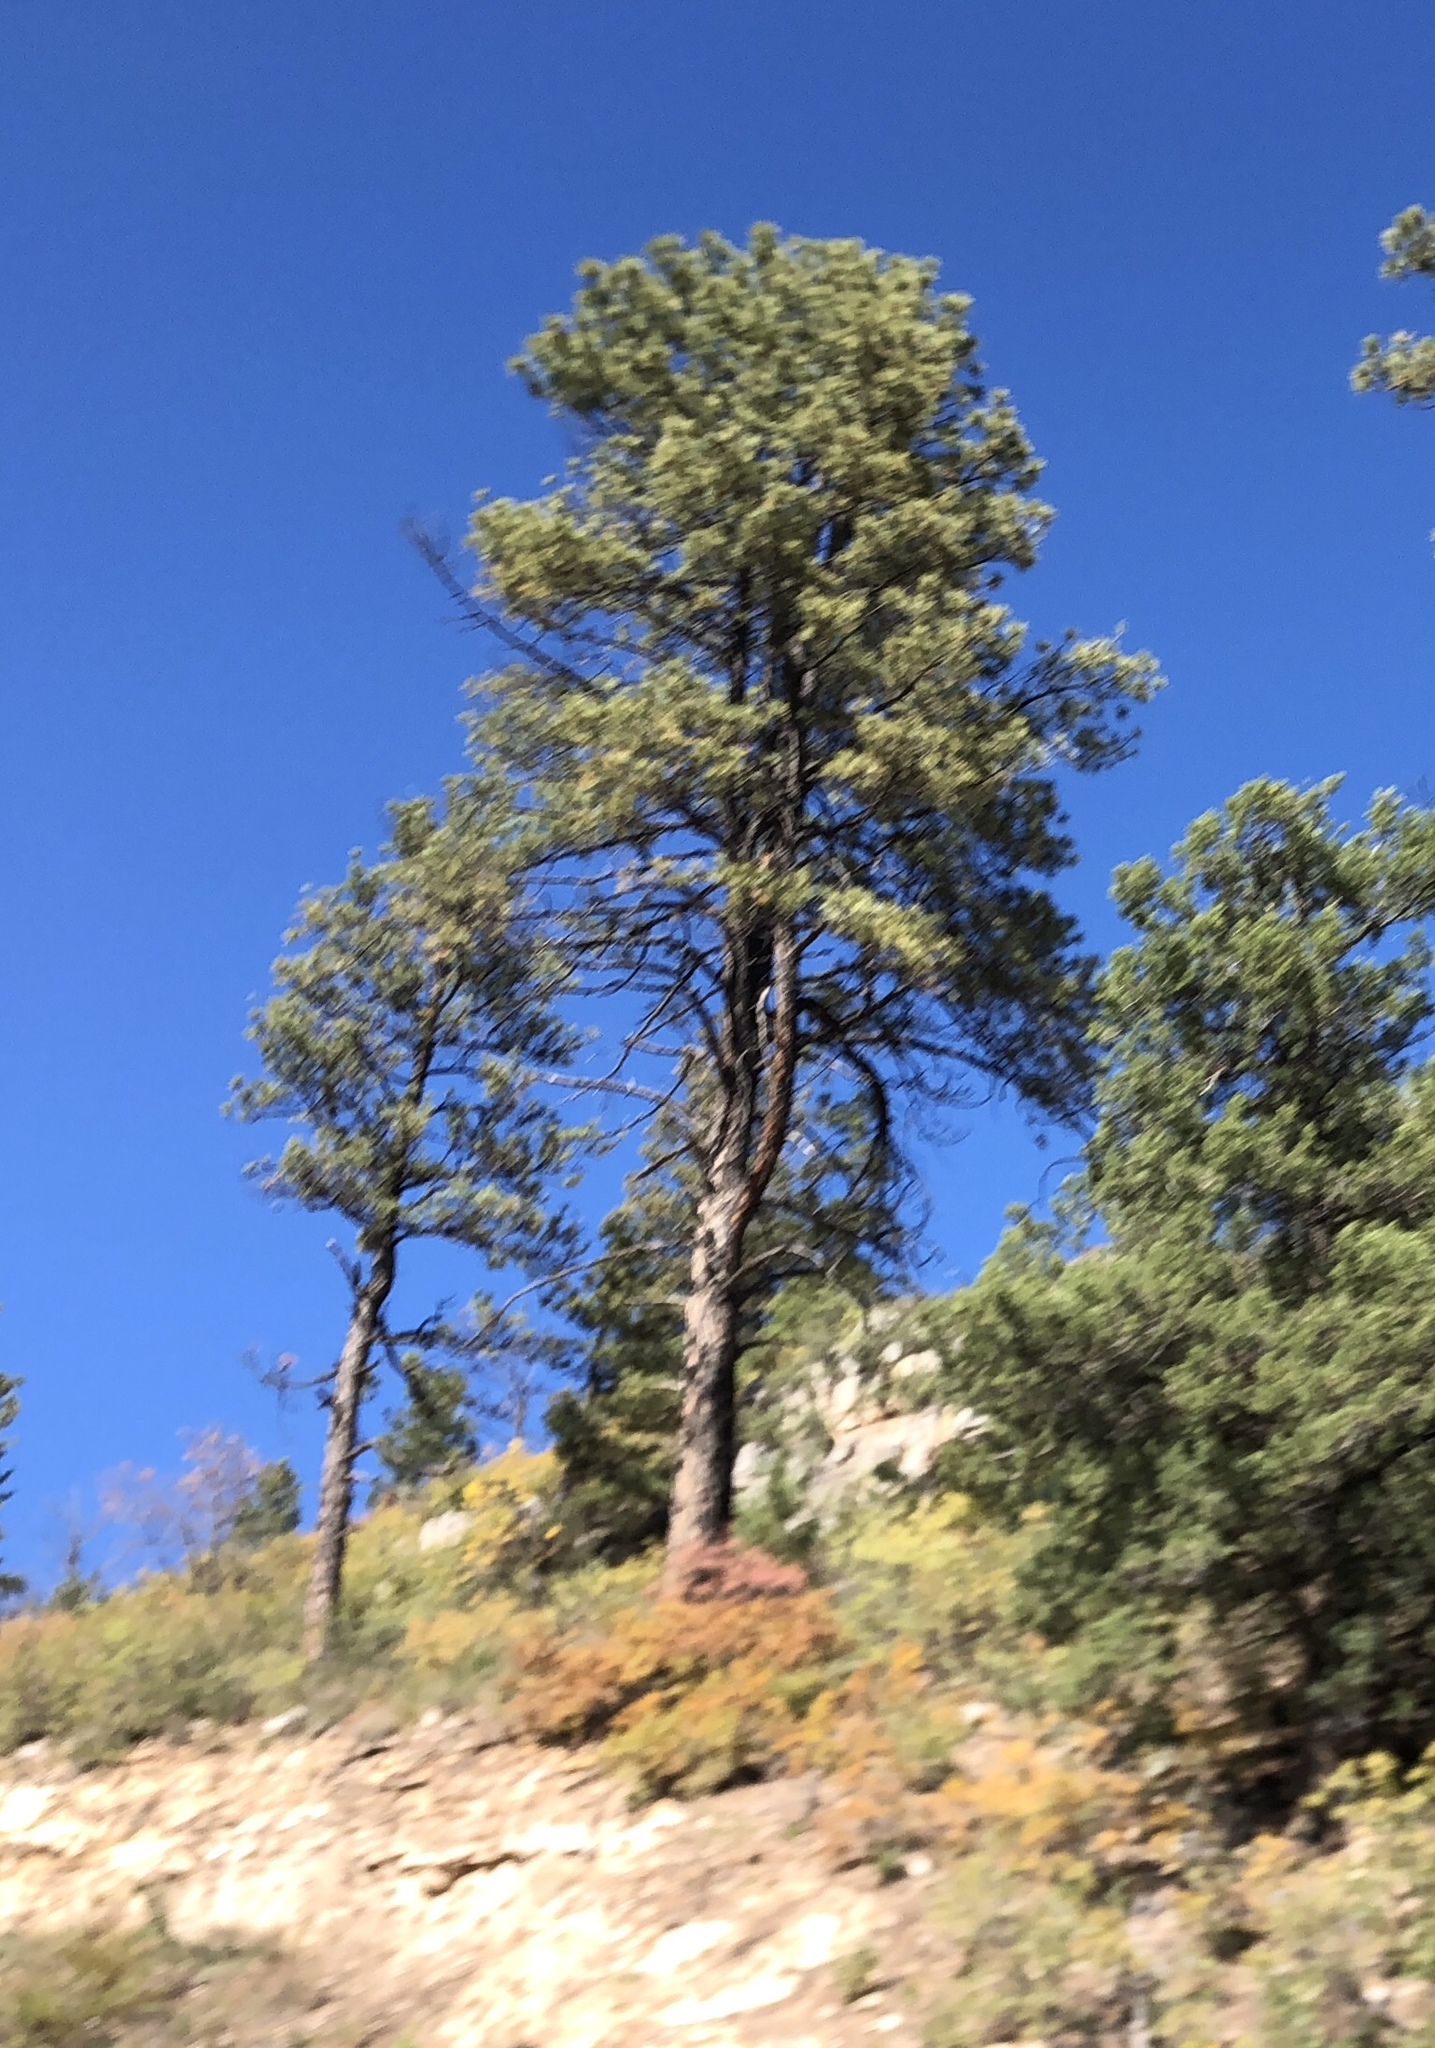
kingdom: Plantae
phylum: Tracheophyta
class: Pinopsida
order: Pinales
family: Pinaceae
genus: Pinus
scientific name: Pinus ponderosa
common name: Western yellow-pine
